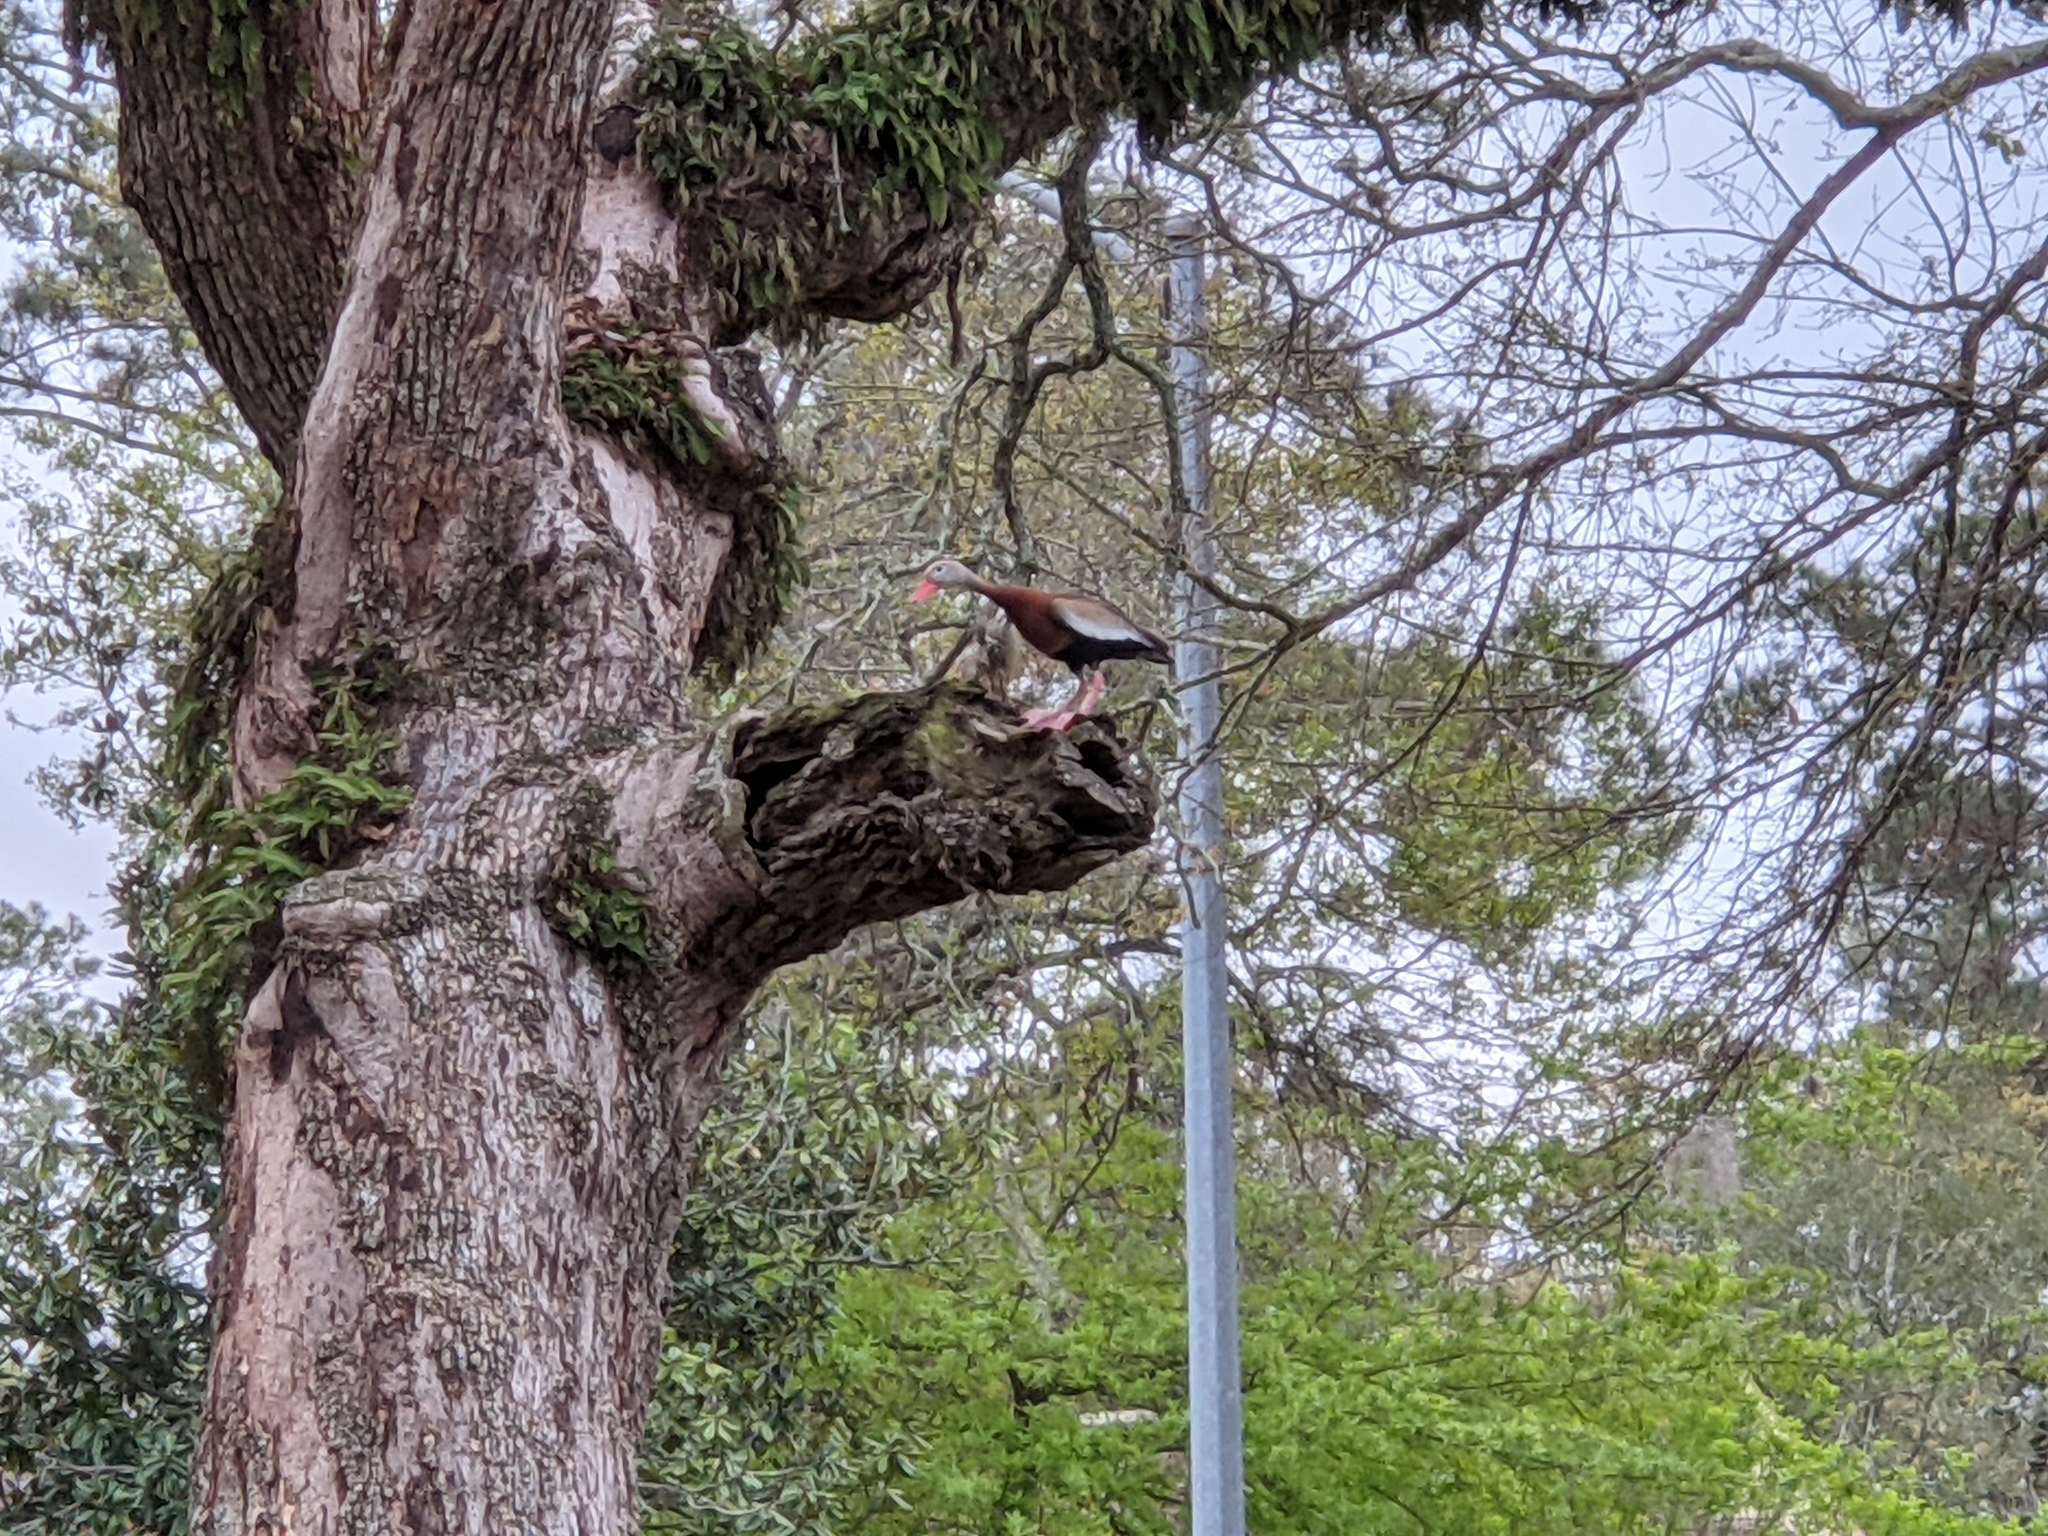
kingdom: Animalia
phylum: Chordata
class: Aves
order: Anseriformes
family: Anatidae
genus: Dendrocygna
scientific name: Dendrocygna autumnalis
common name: Black-bellied whistling duck
